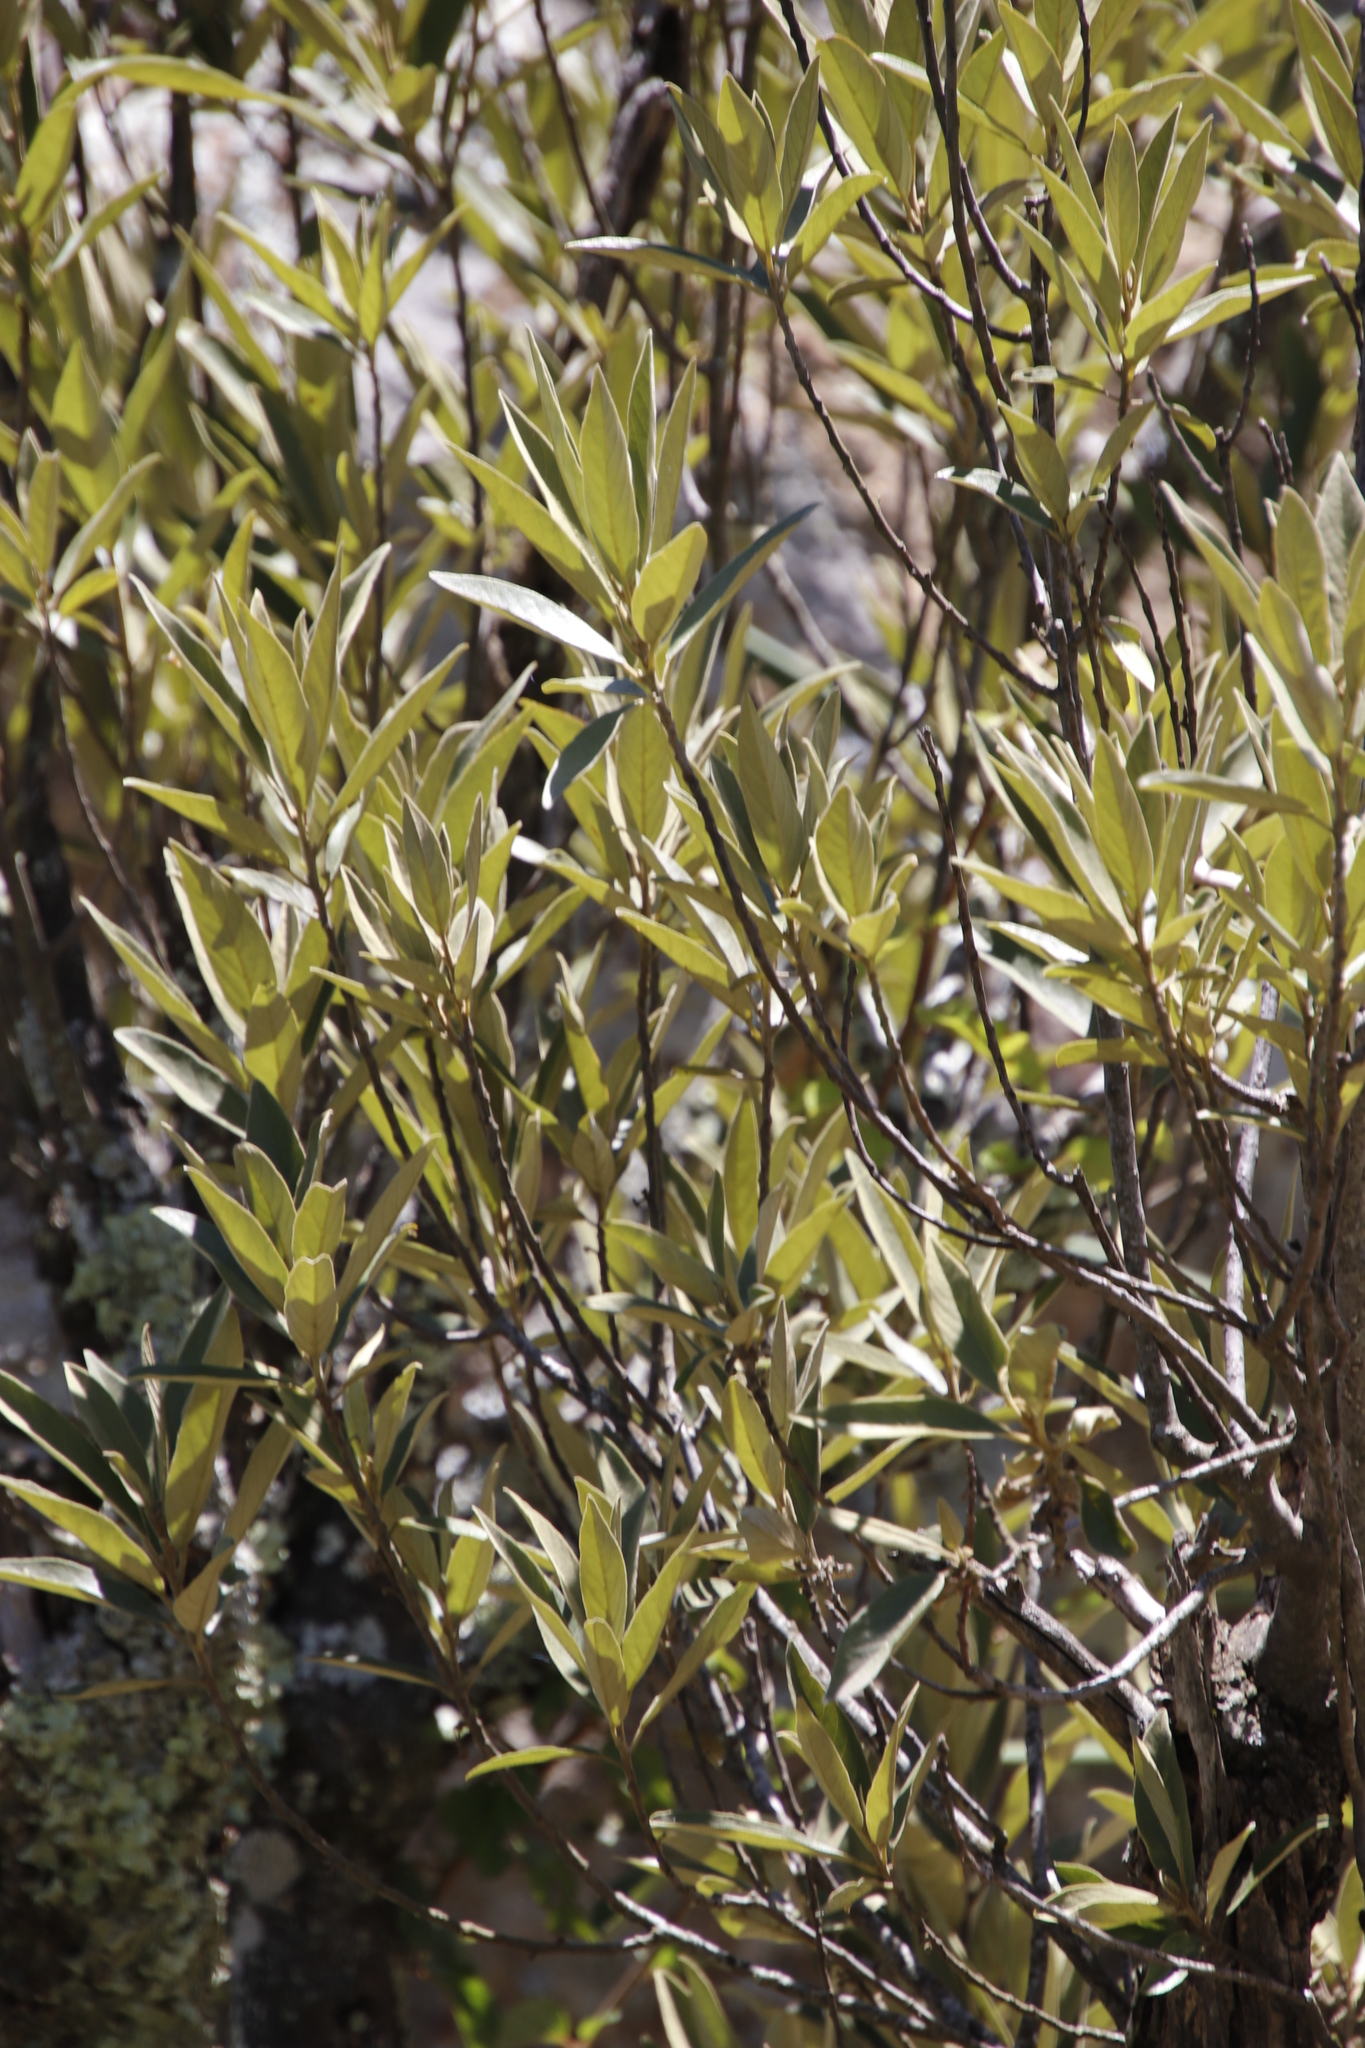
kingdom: Plantae
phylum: Tracheophyta
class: Magnoliopsida
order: Malpighiales
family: Achariaceae
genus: Kiggelaria
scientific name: Kiggelaria africana
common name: Wild peach
